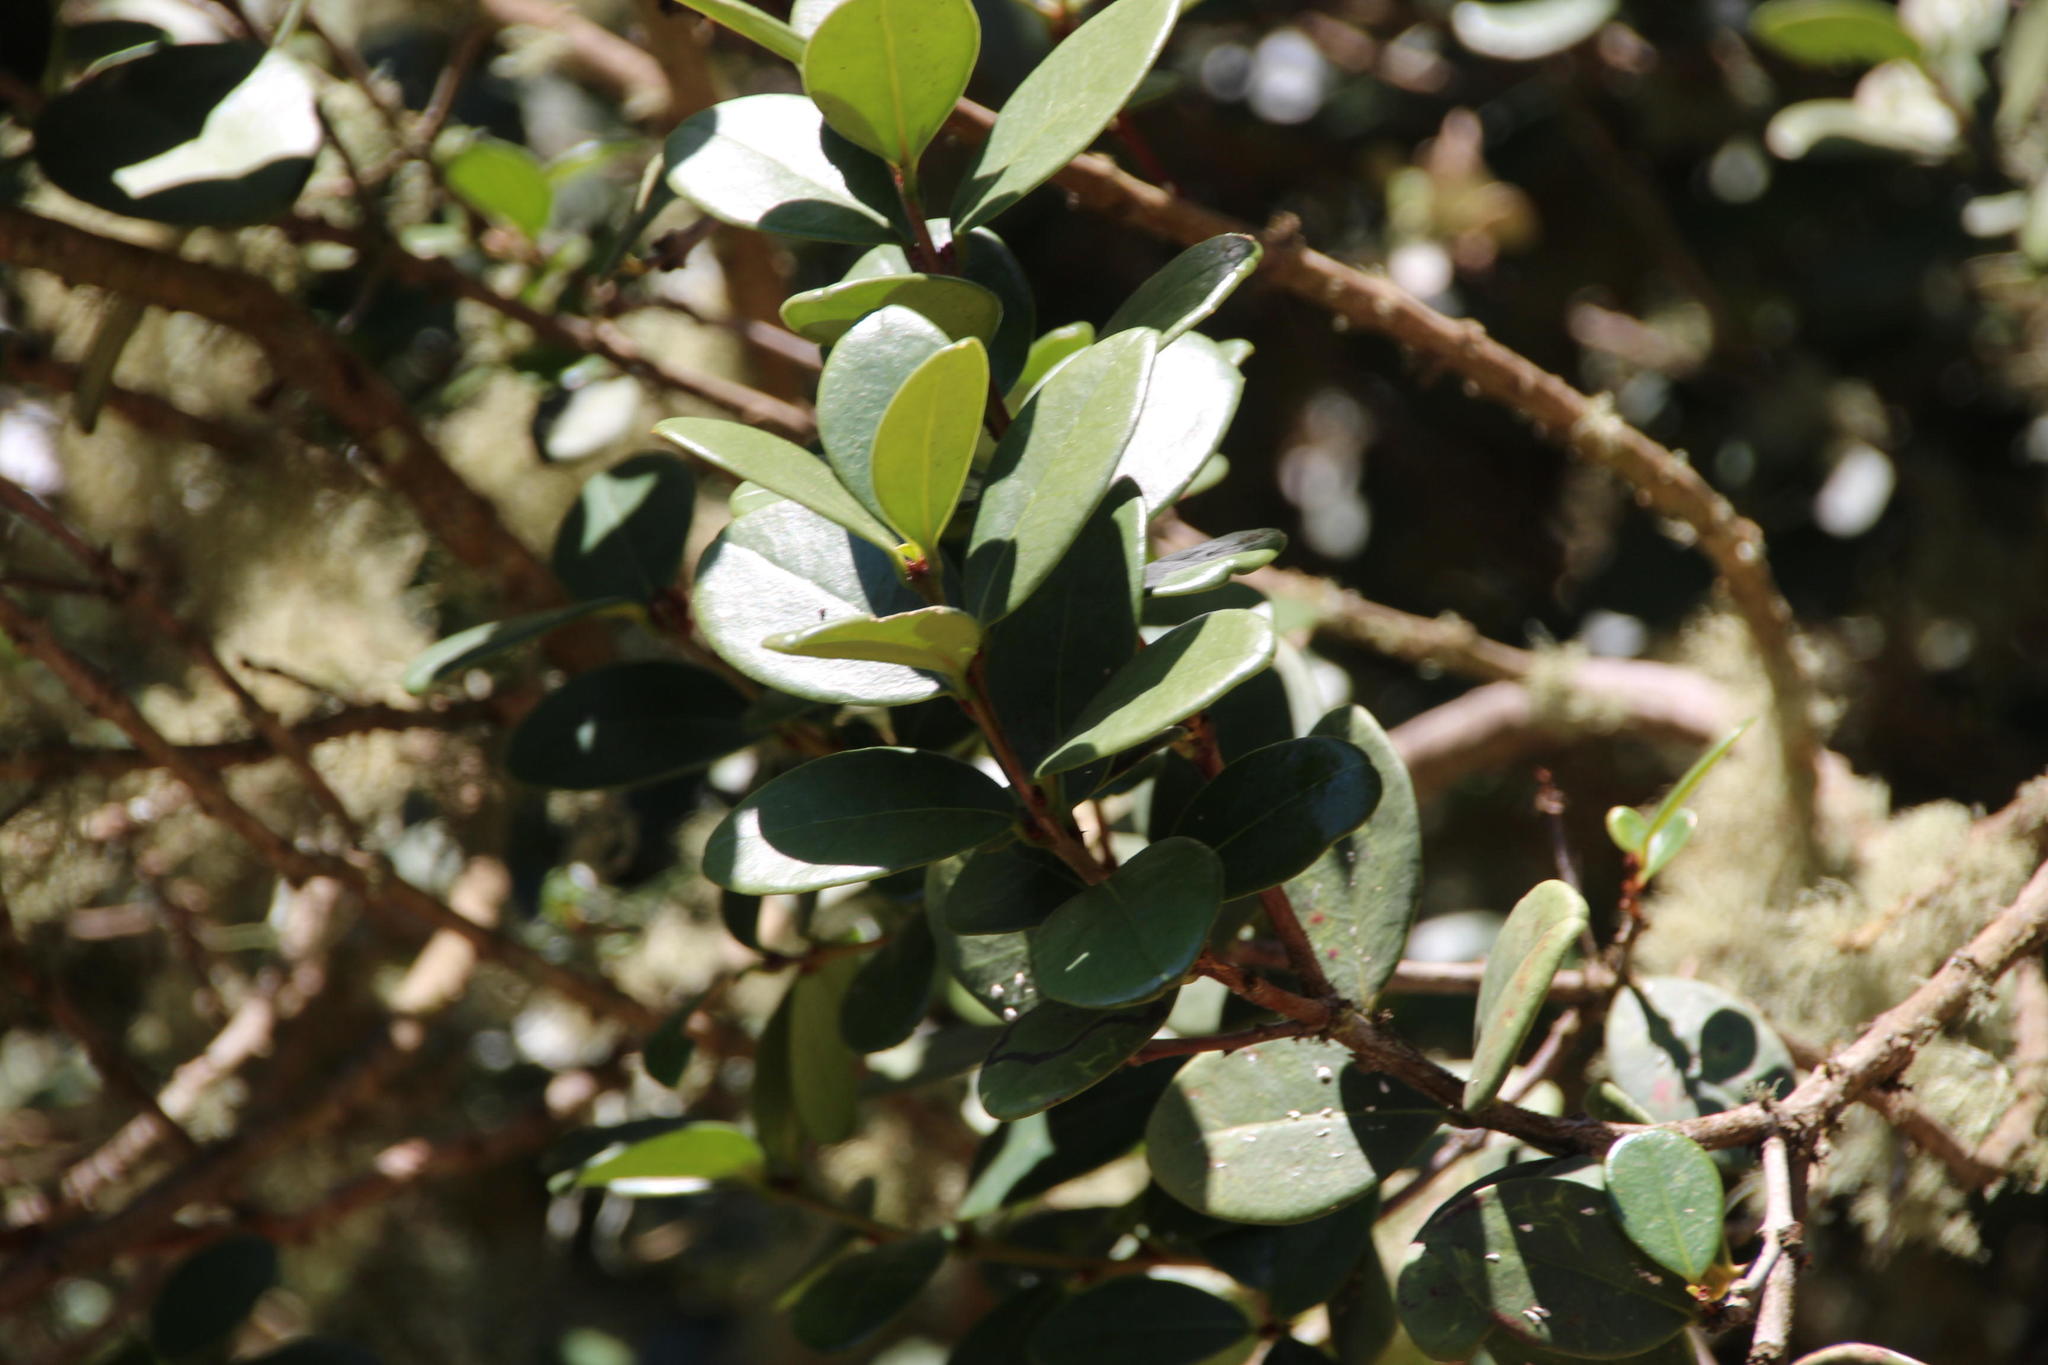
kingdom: Plantae
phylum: Tracheophyta
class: Magnoliopsida
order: Celastrales
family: Celastraceae
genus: Maurocenia
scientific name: Maurocenia frangula
